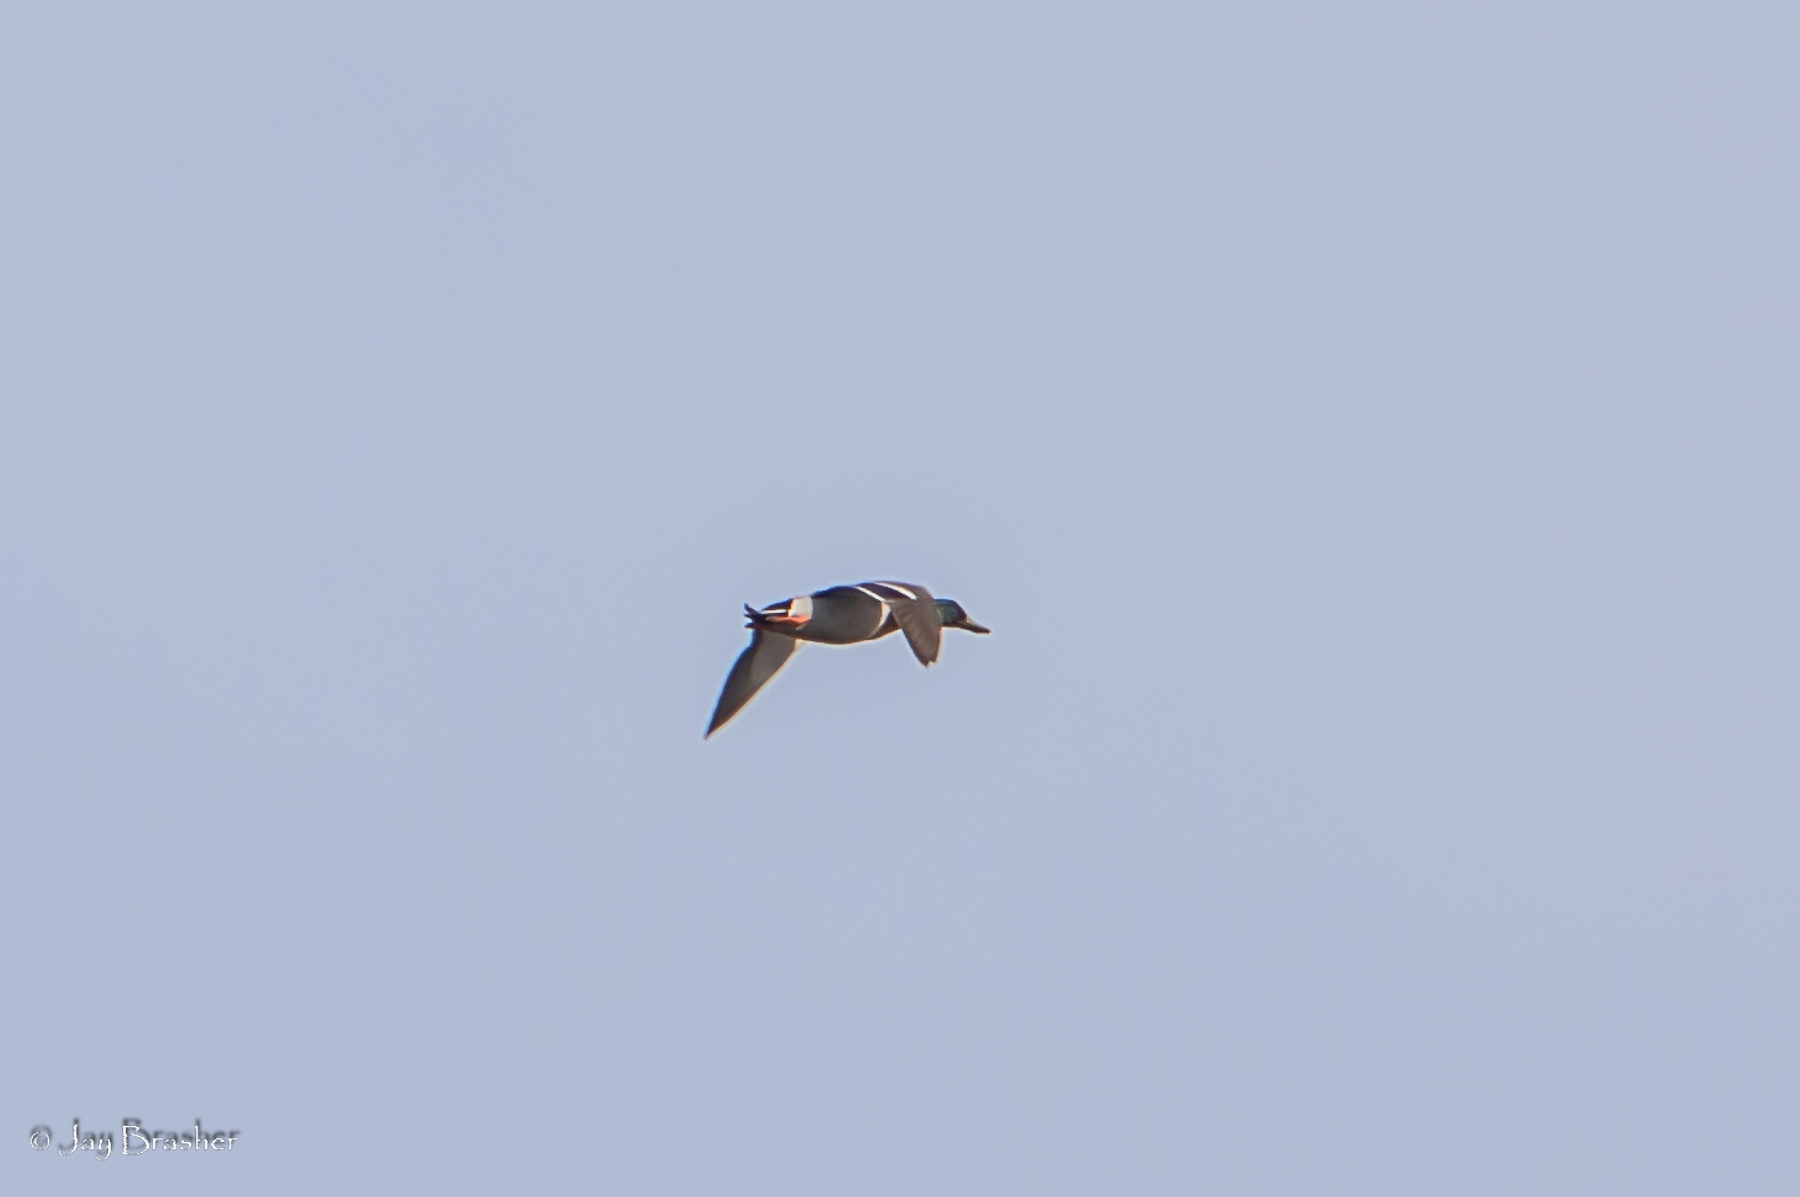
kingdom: Animalia
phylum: Chordata
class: Aves
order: Anseriformes
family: Anatidae
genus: Anas
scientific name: Anas platyrhynchos
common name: Mallard
